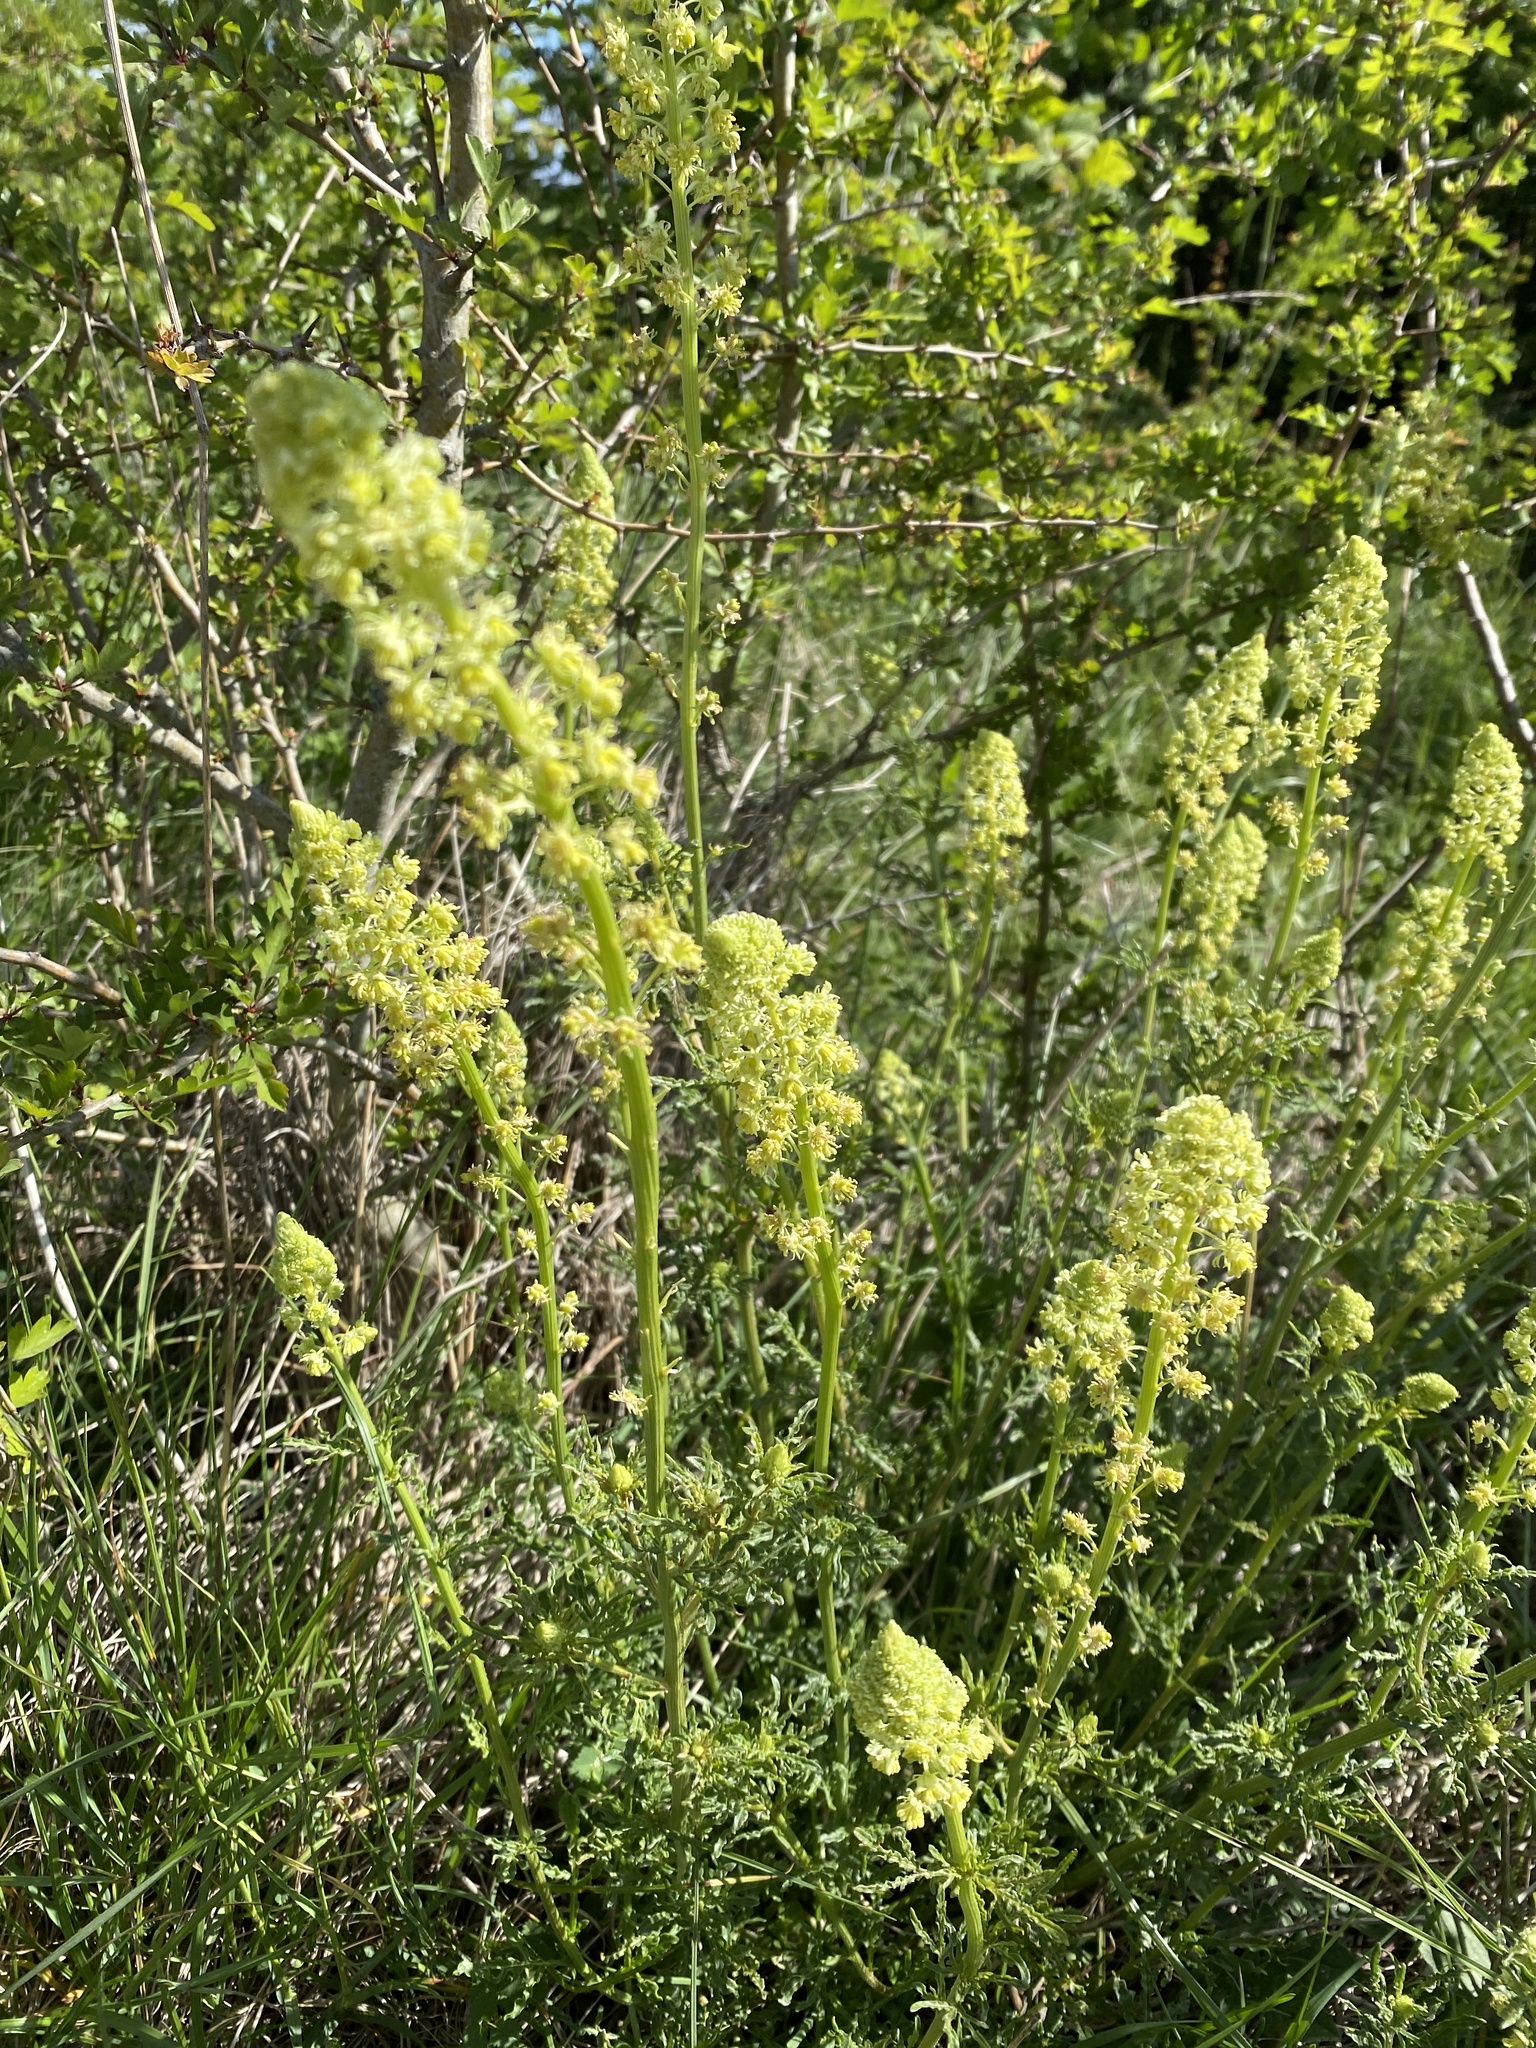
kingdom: Plantae
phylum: Tracheophyta
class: Magnoliopsida
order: Brassicales
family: Resedaceae
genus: Reseda
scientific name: Reseda lutea
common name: Wild mignonette
